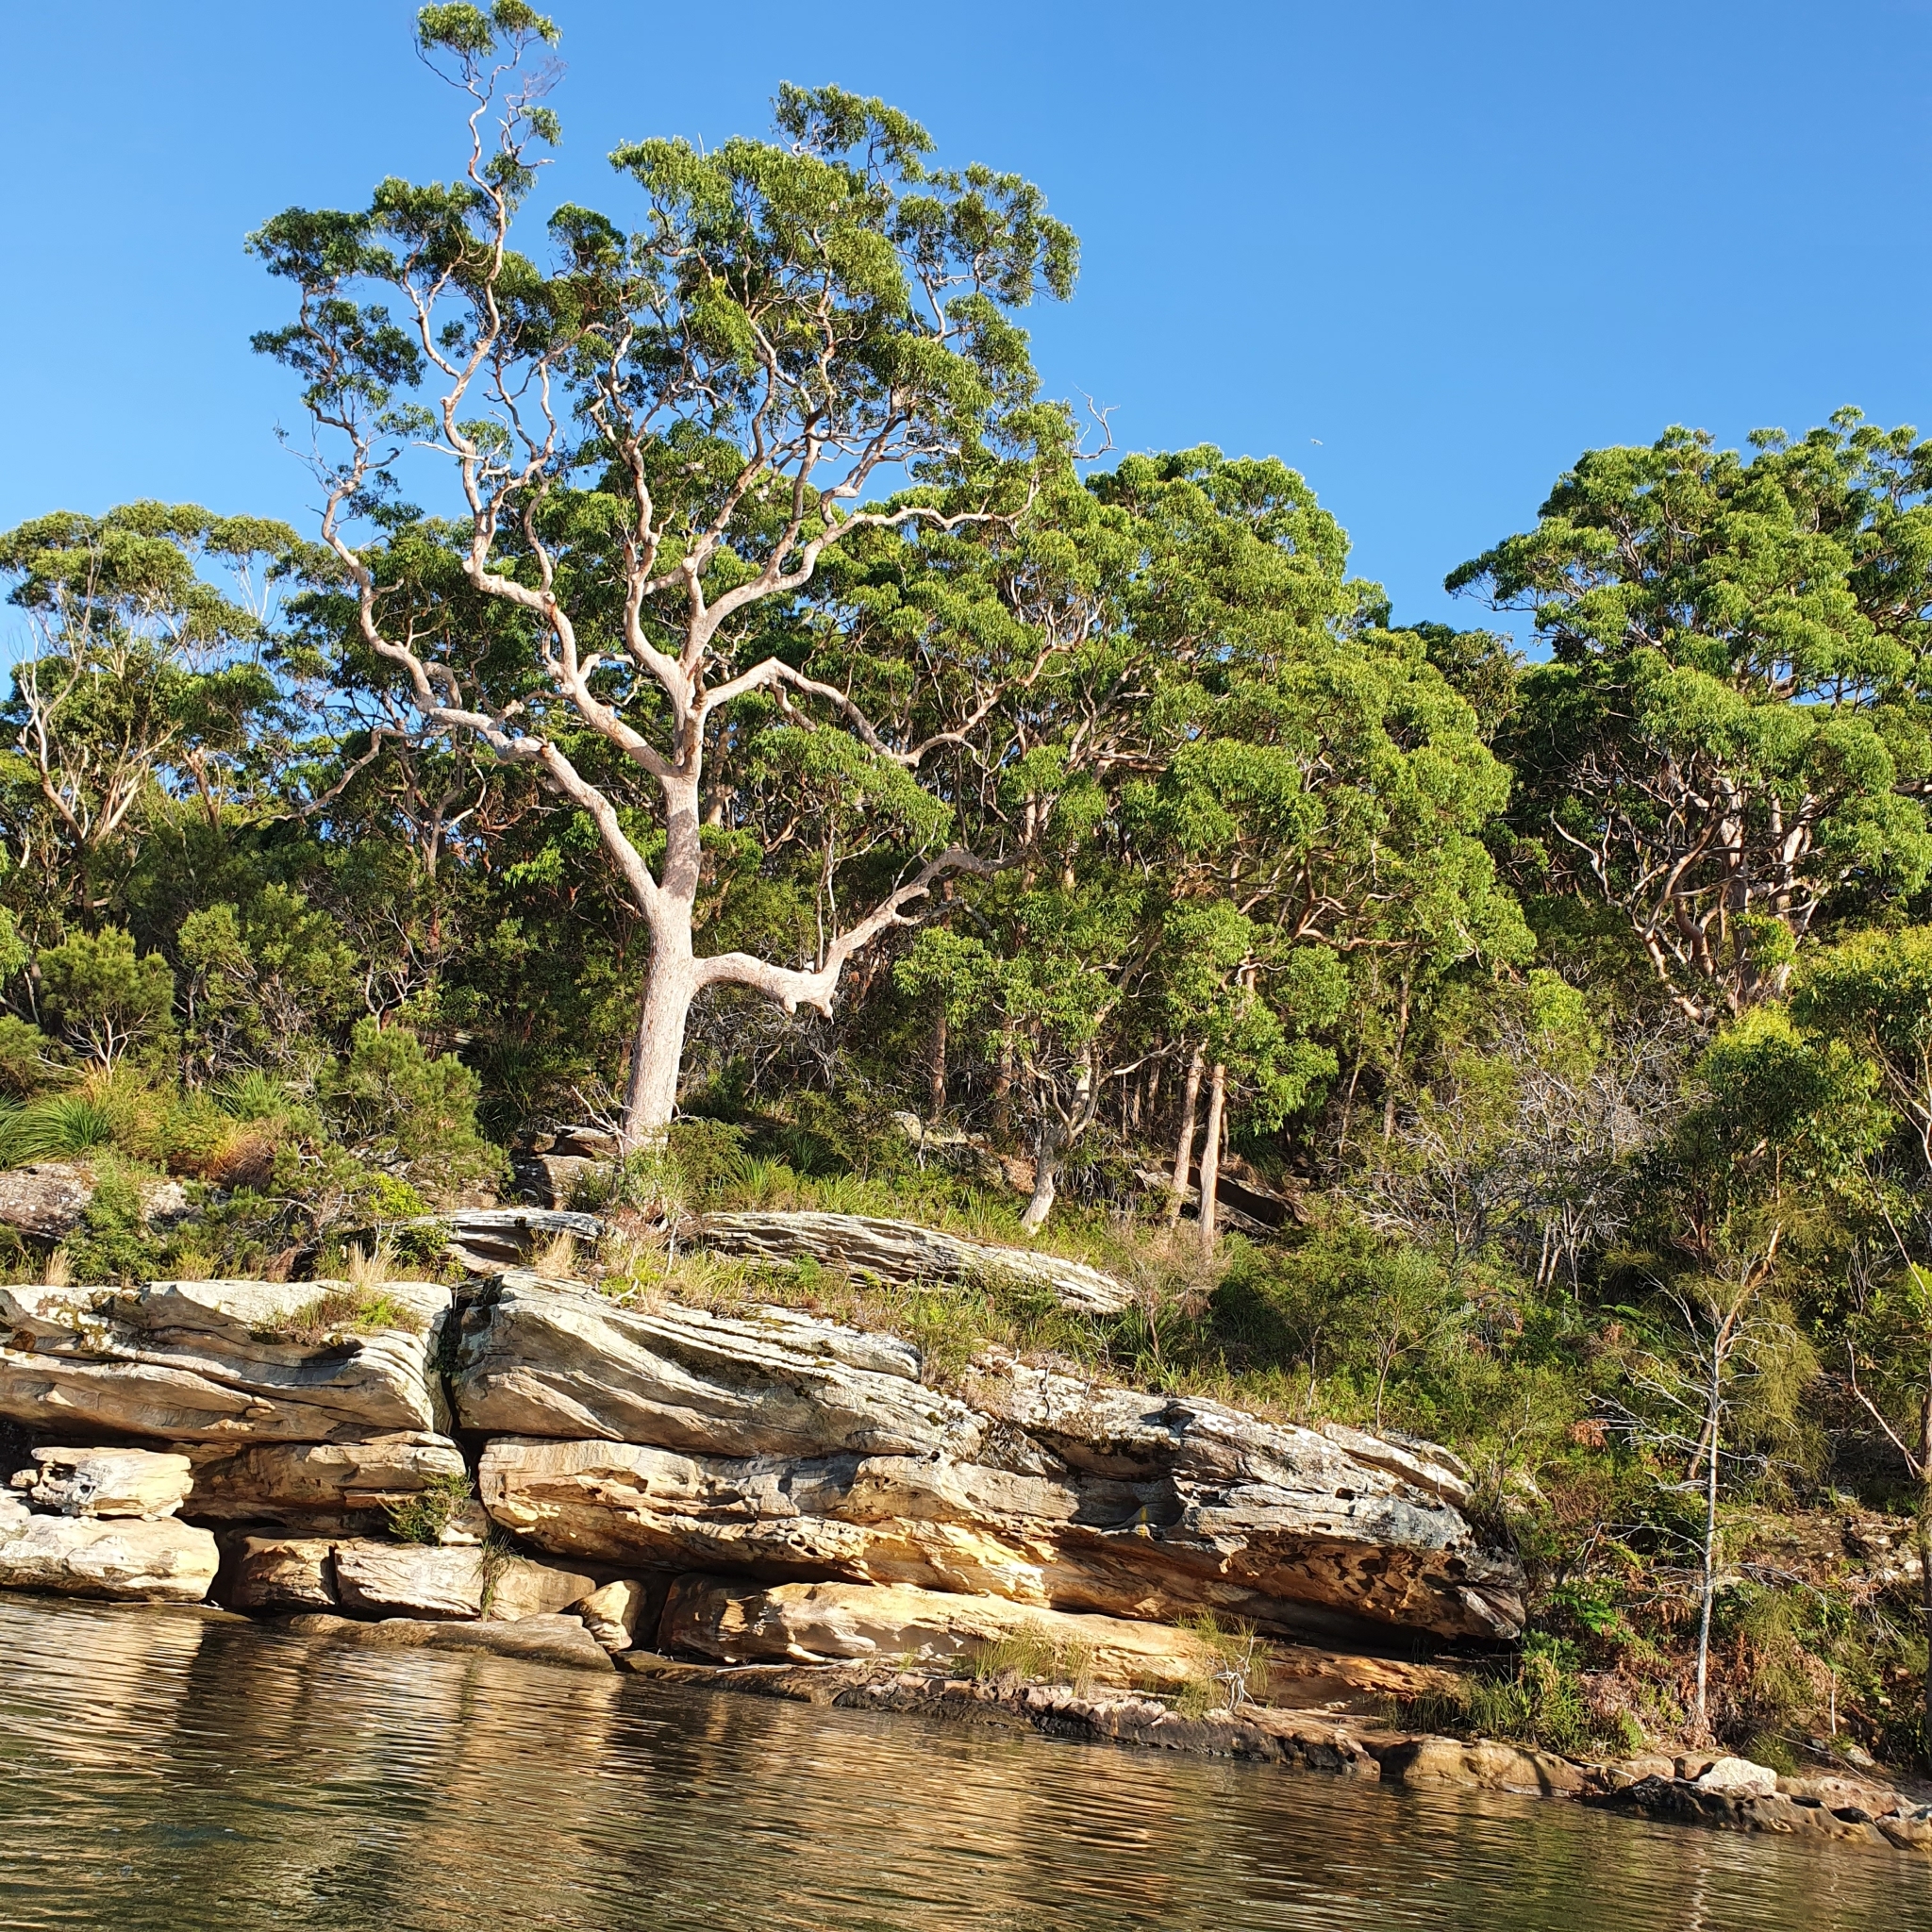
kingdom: Plantae
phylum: Tracheophyta
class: Magnoliopsida
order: Myrtales
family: Myrtaceae
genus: Angophora
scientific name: Angophora costata
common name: Gum myrtle
